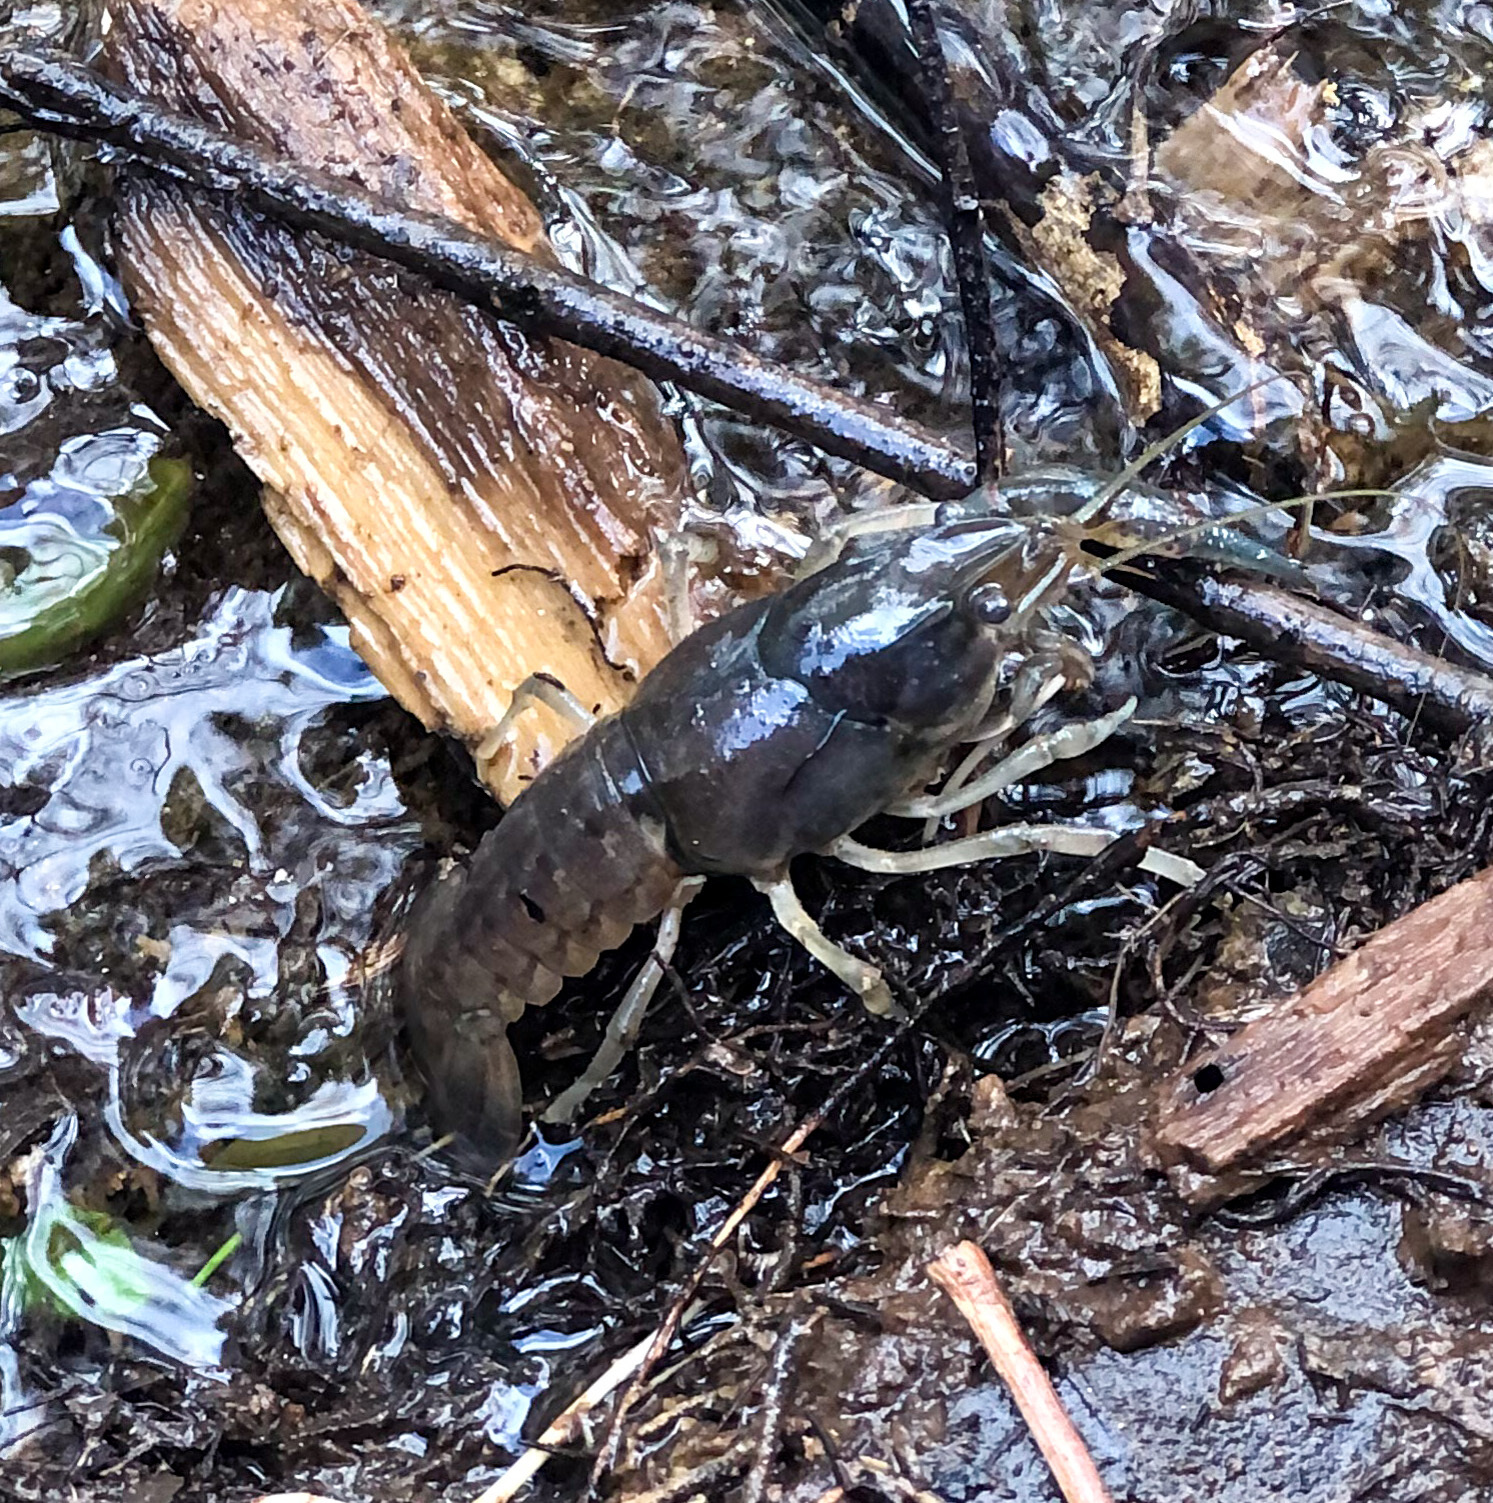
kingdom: Animalia
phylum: Arthropoda
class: Malacostraca
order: Decapoda
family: Cambaridae
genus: Procambarus
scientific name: Procambarus simulans
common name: Southern plains crayfish
